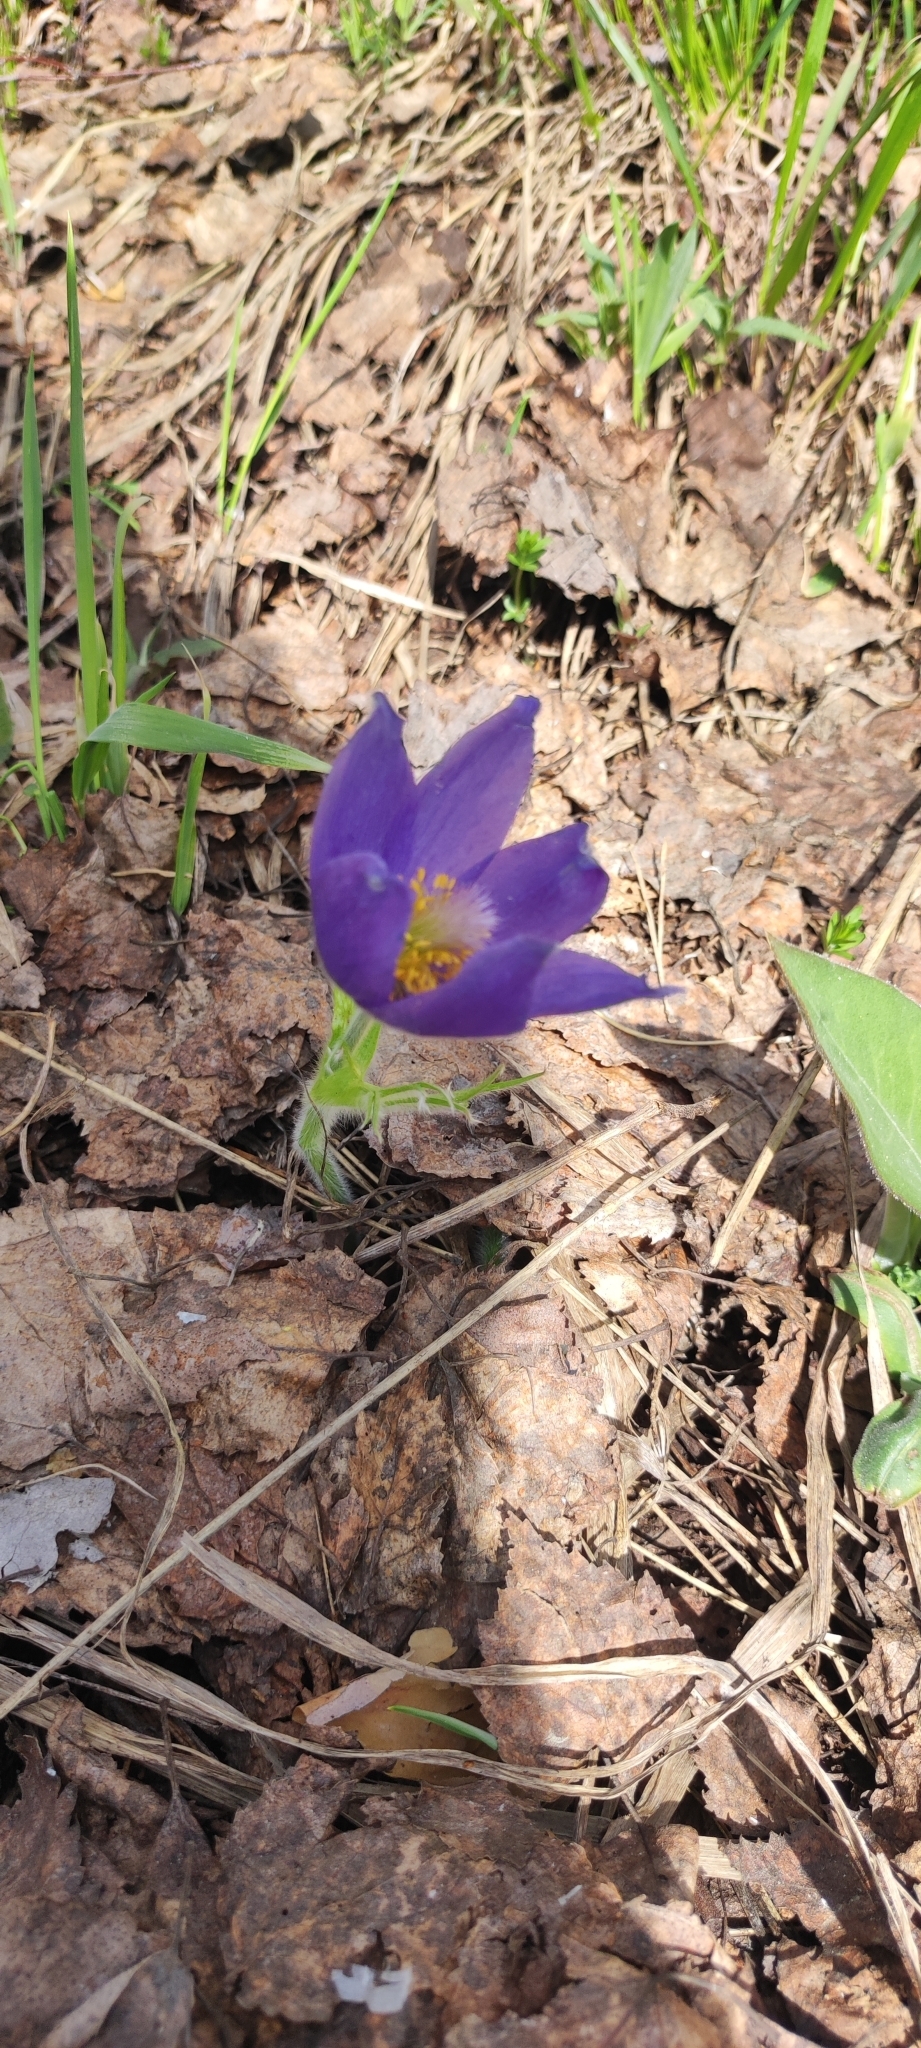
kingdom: Plantae
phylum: Tracheophyta
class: Magnoliopsida
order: Ranunculales
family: Ranunculaceae
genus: Pulsatilla
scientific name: Pulsatilla patens
